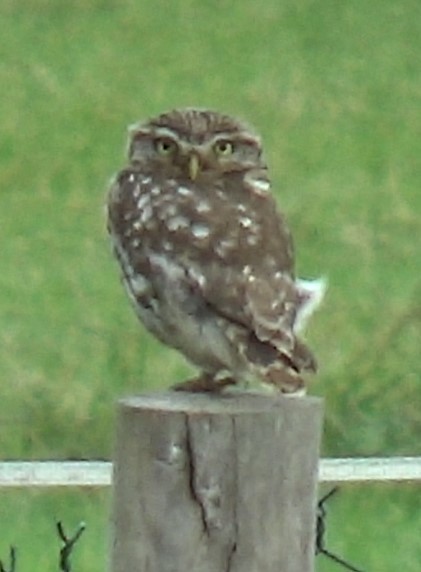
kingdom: Animalia
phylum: Chordata
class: Aves
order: Strigiformes
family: Strigidae
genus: Athene
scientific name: Athene noctua
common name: Little owl
